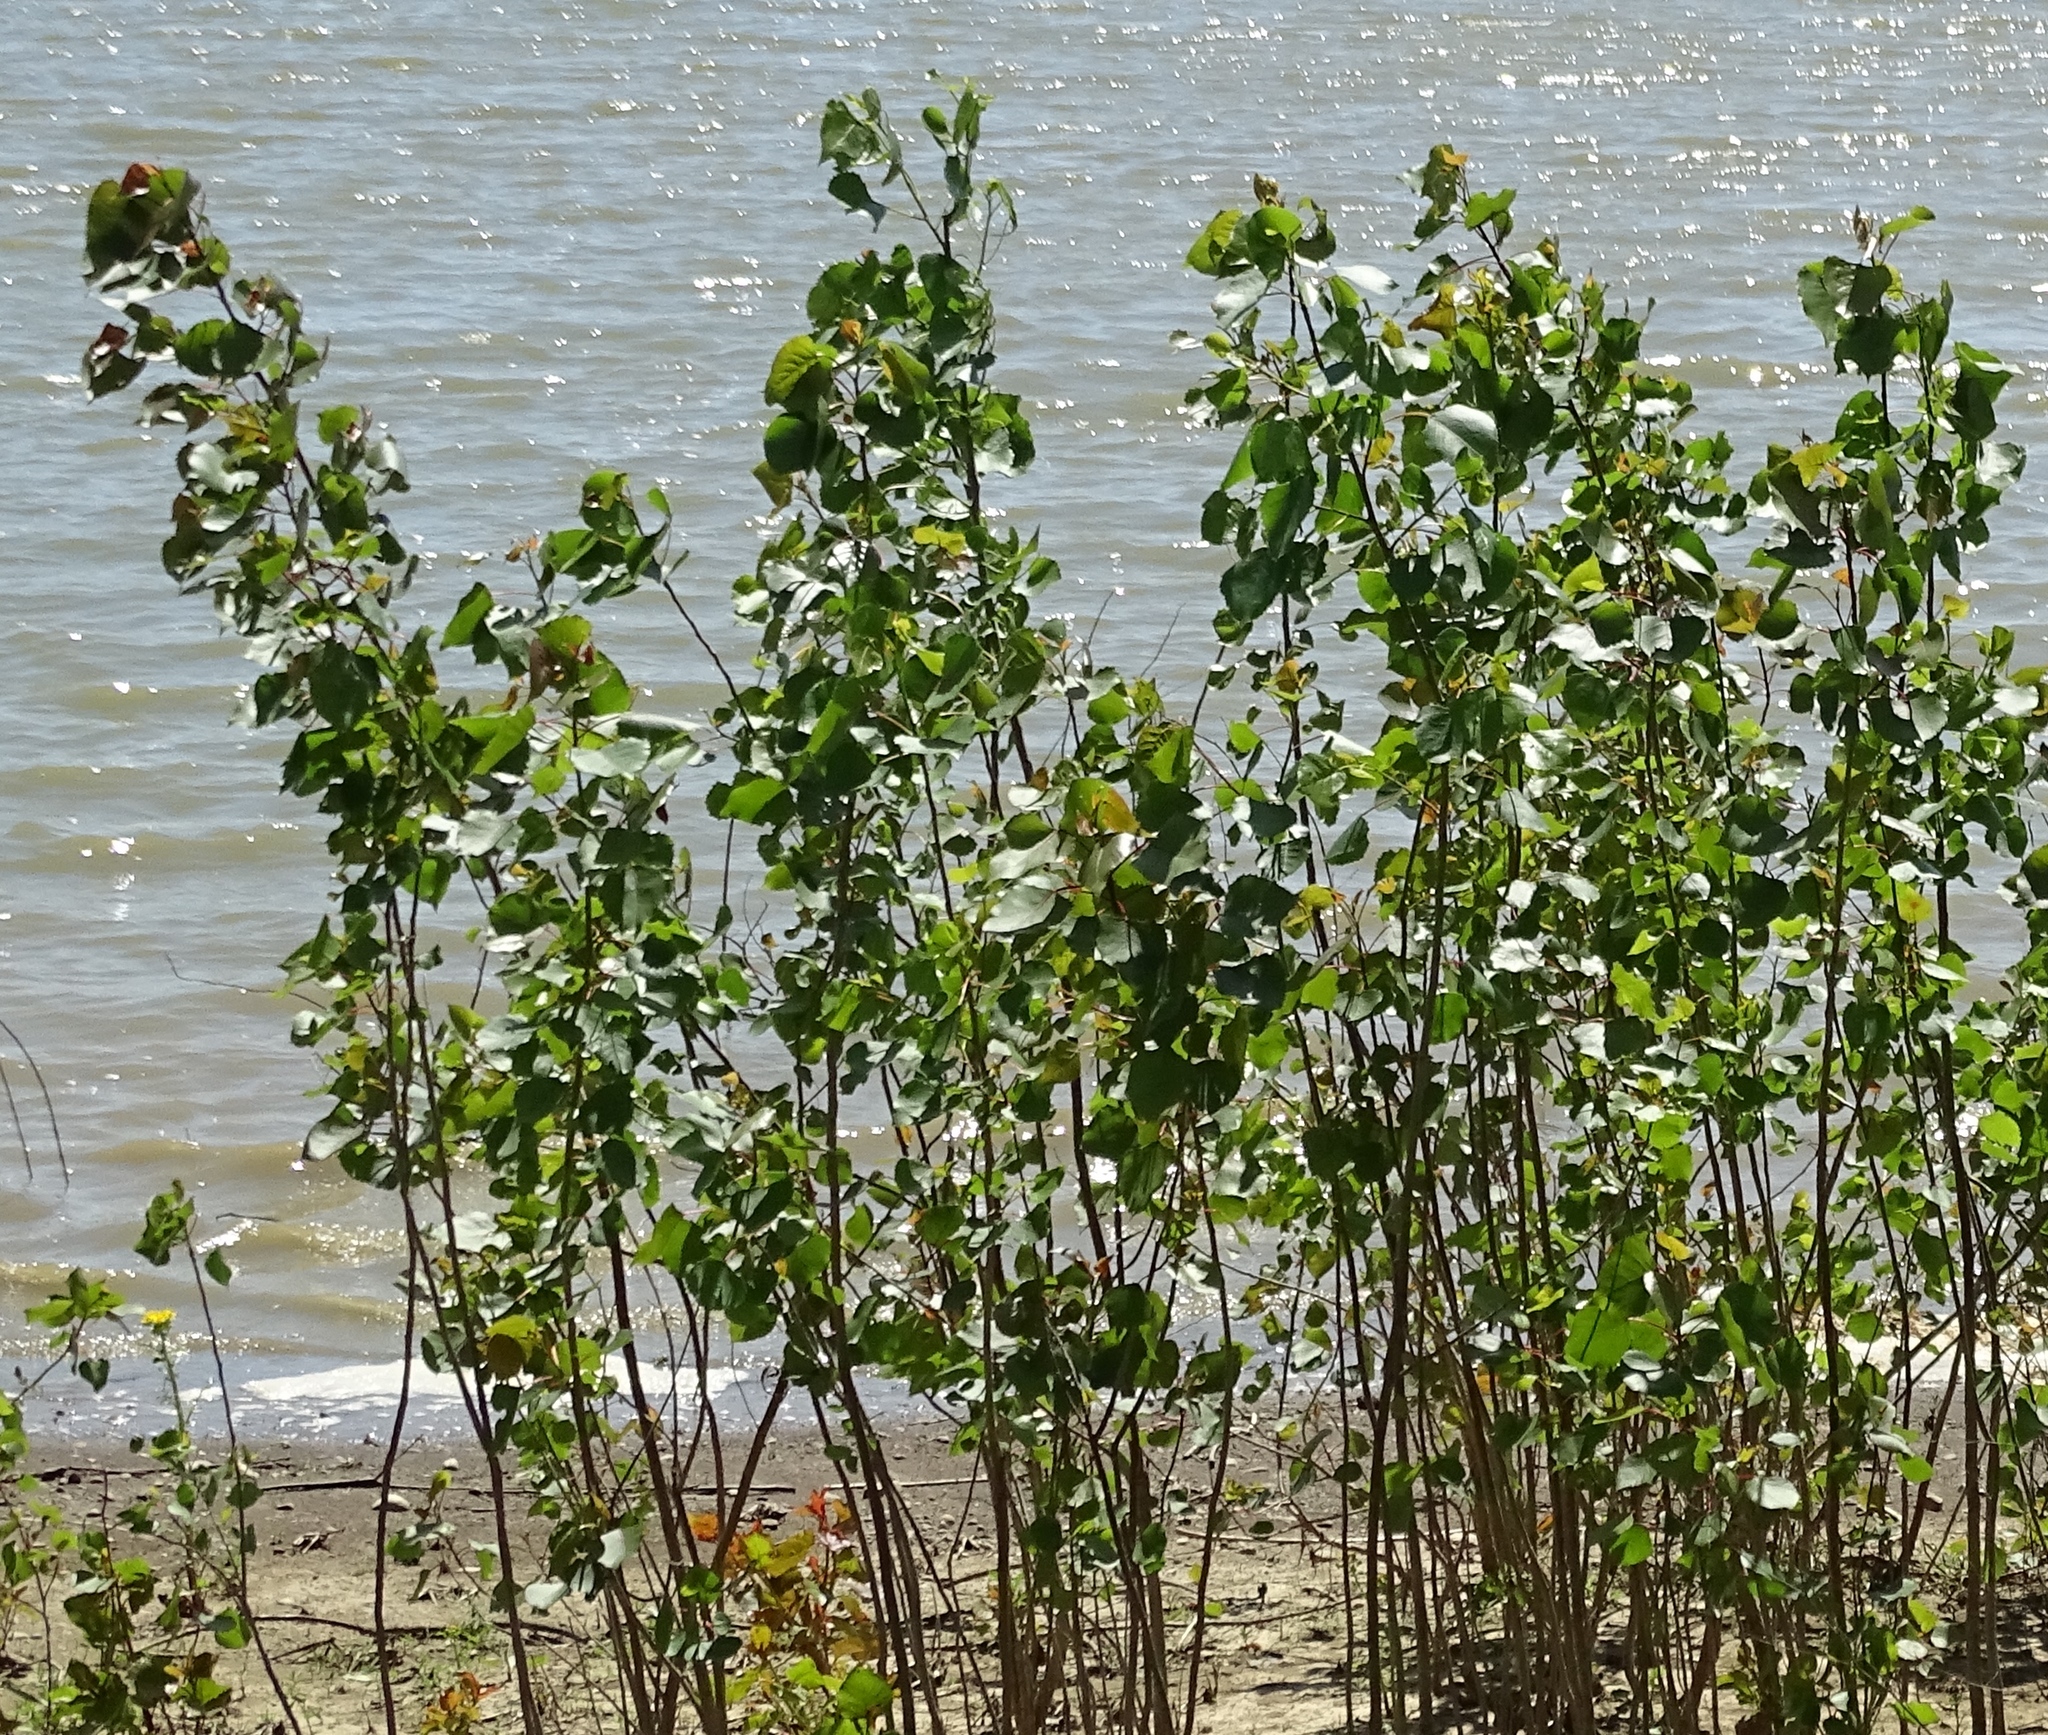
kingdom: Plantae
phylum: Tracheophyta
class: Magnoliopsida
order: Malpighiales
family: Salicaceae
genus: Populus
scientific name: Populus deltoides
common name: Eastern cottonwood
